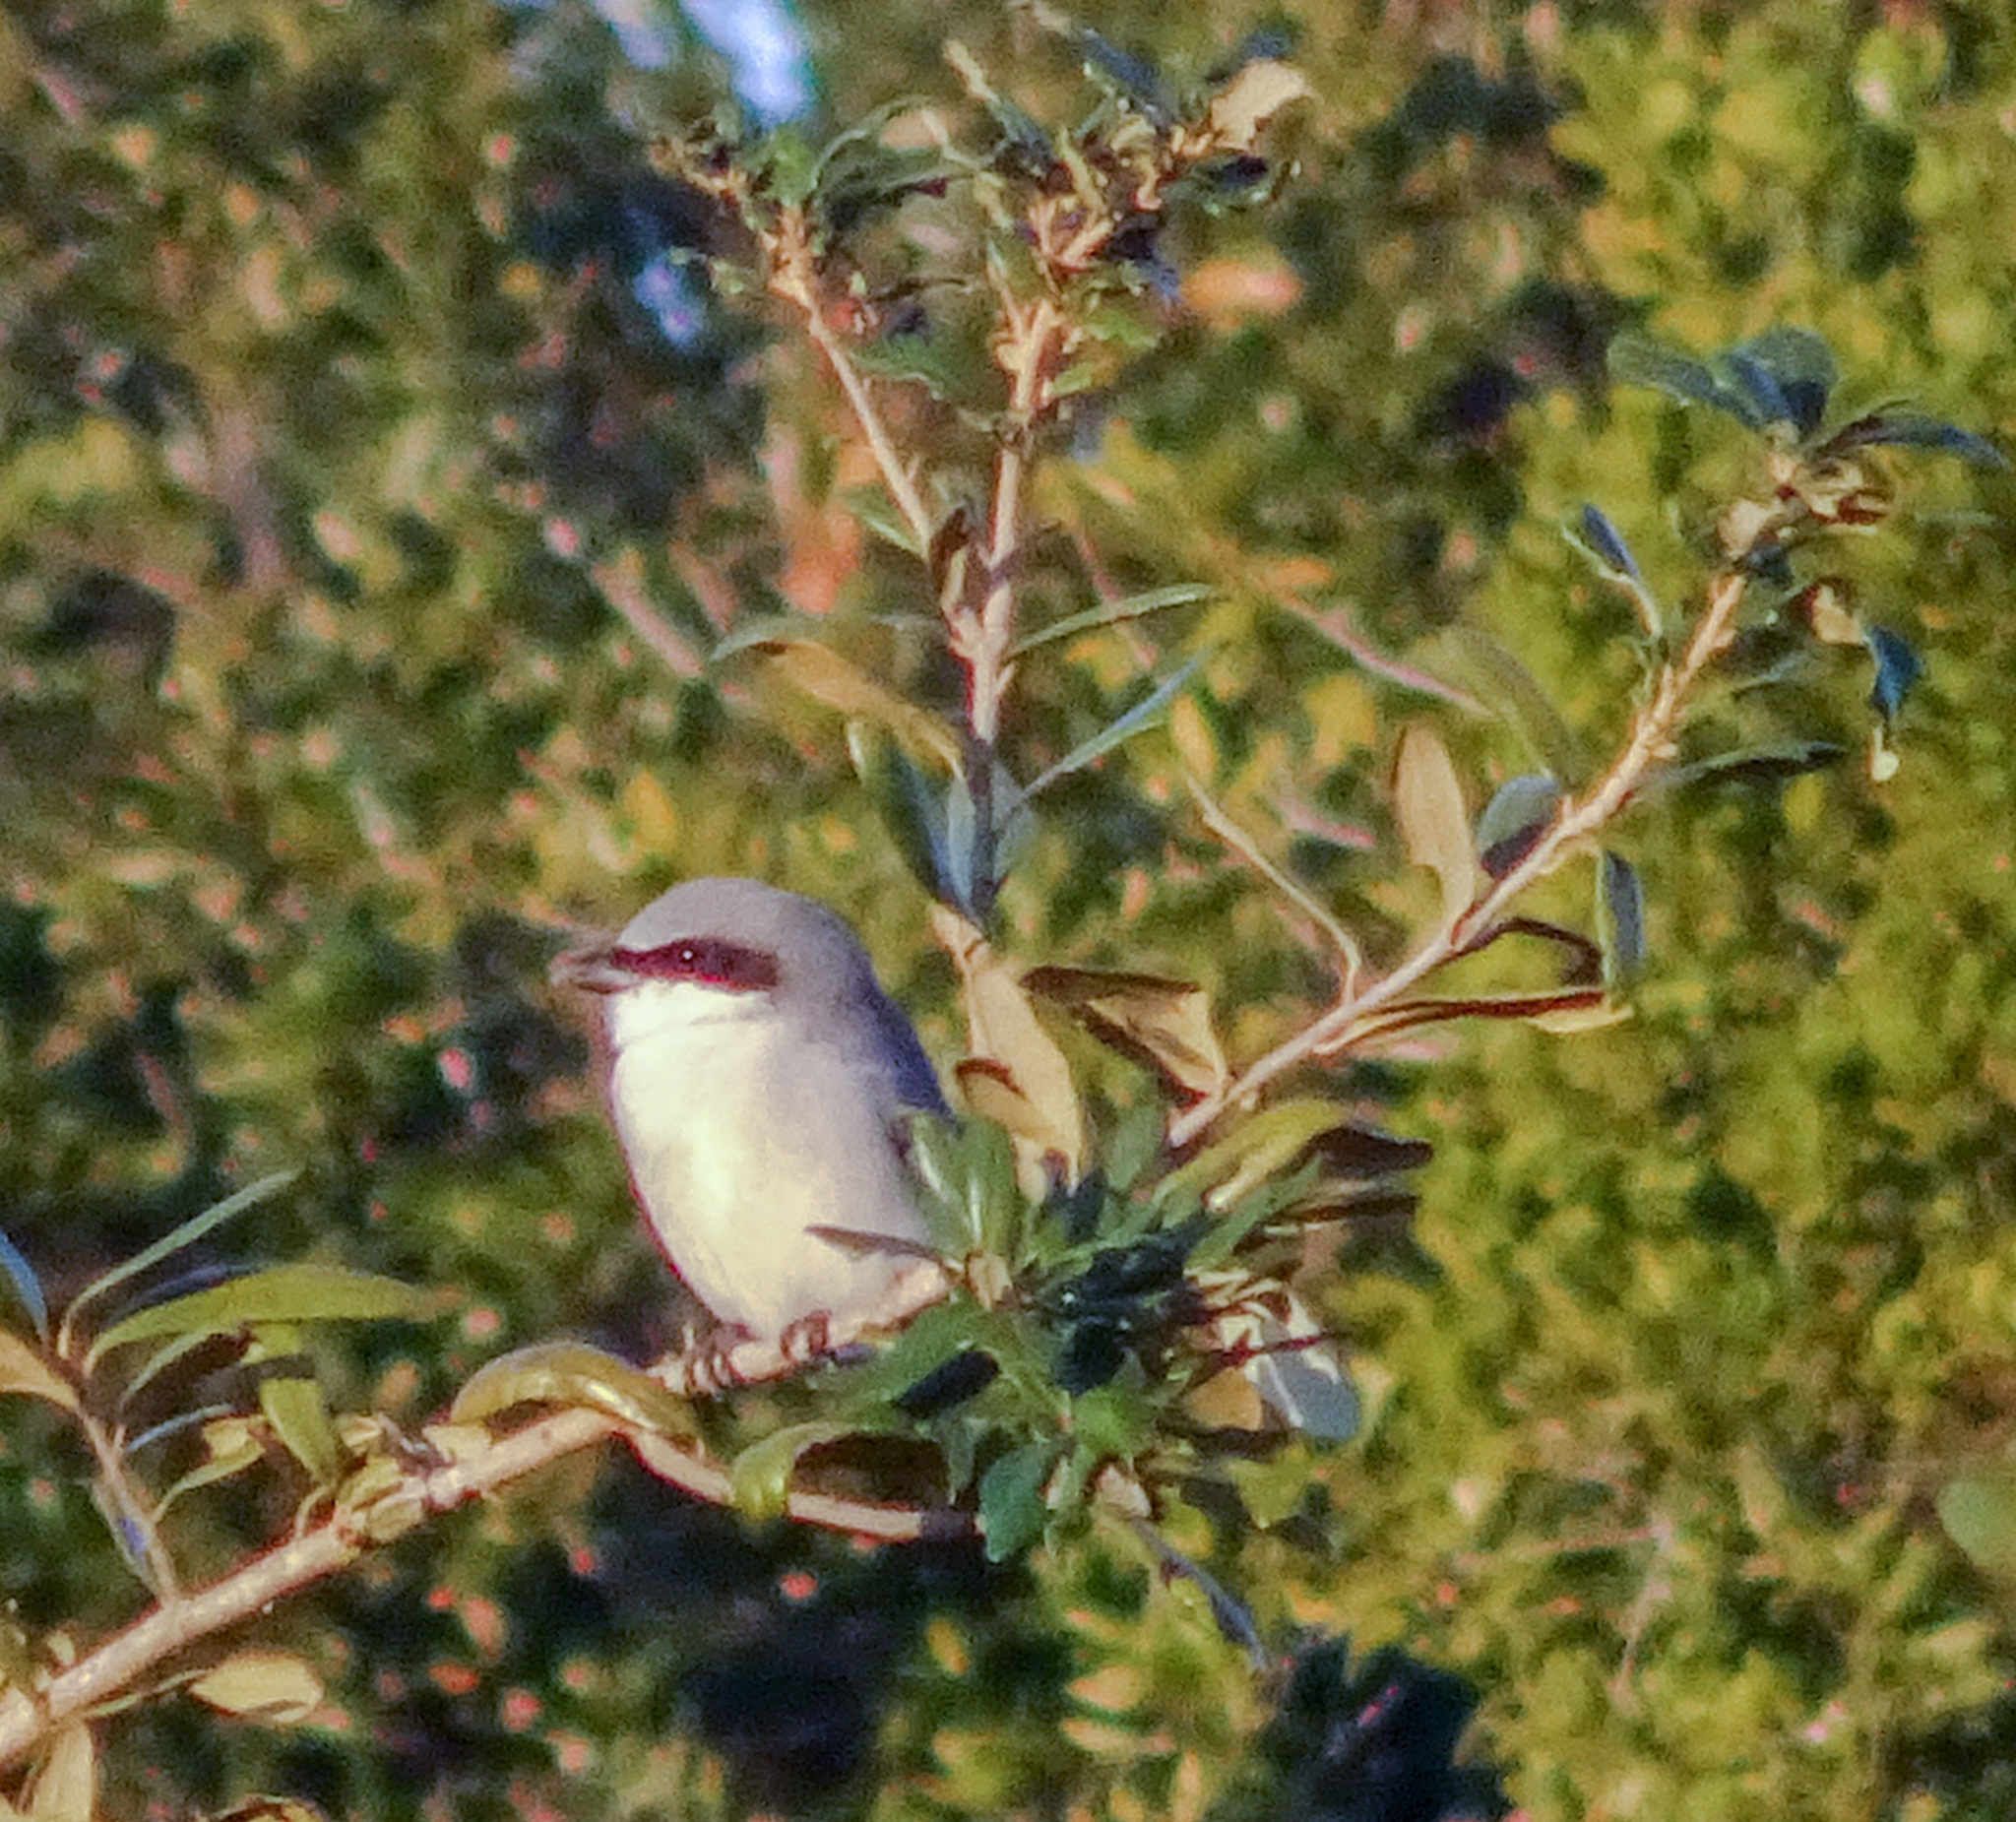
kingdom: Animalia
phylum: Chordata
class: Aves
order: Passeriformes
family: Laniidae
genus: Lanius
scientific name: Lanius ludovicianus
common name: Loggerhead shrike
